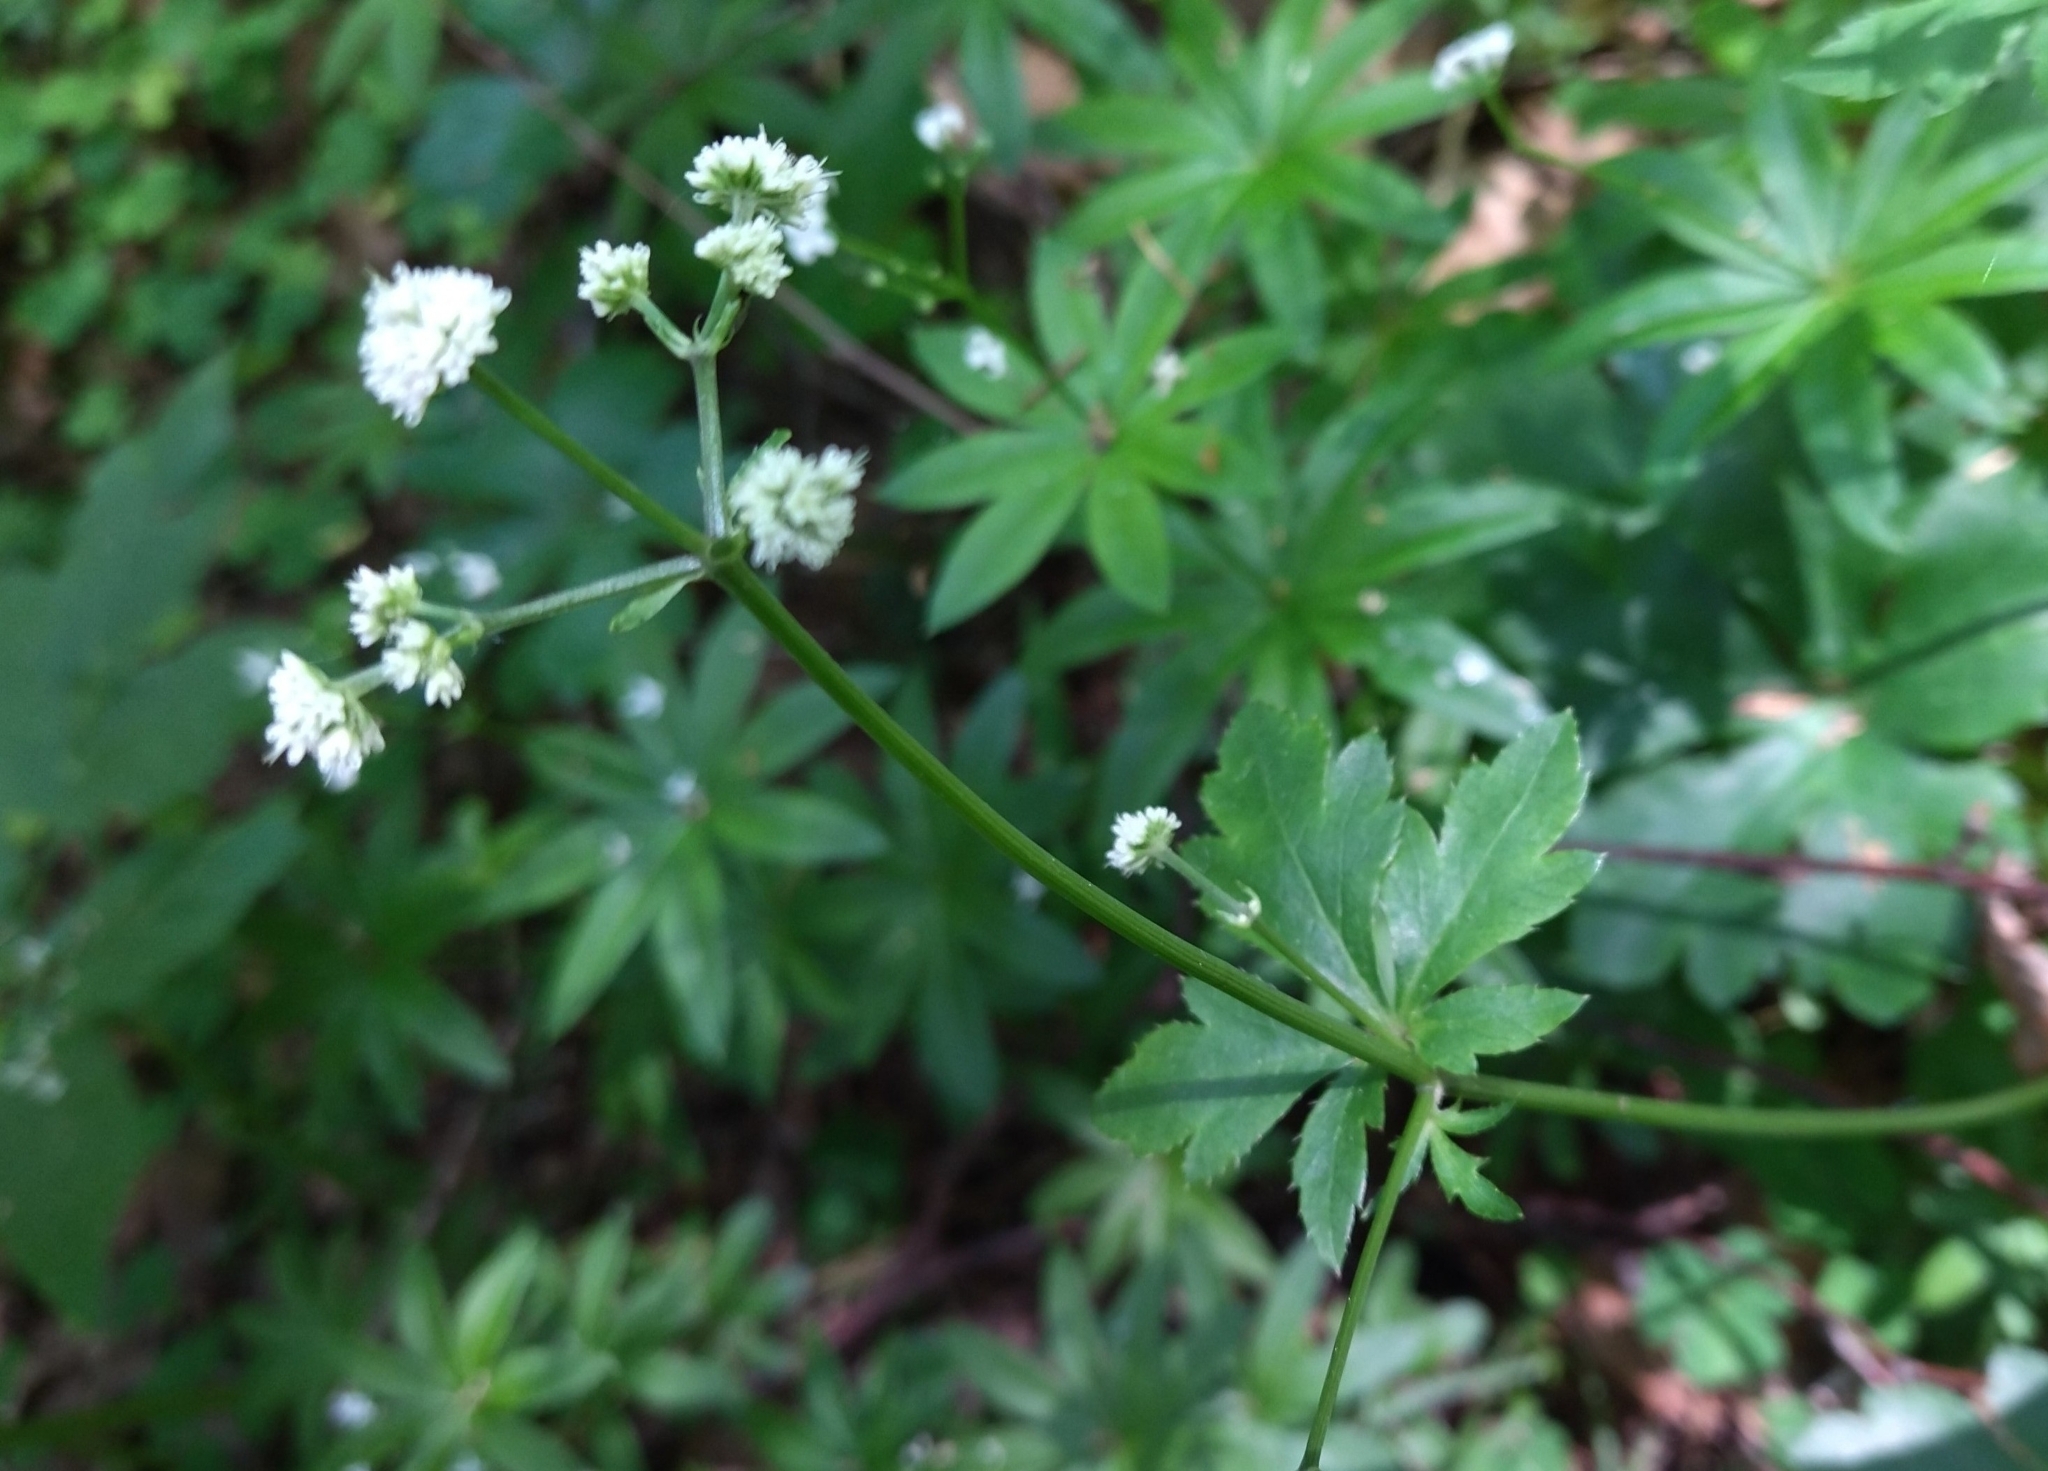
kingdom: Plantae
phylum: Tracheophyta
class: Magnoliopsida
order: Apiales
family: Apiaceae
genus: Sanicula
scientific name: Sanicula europaea
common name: Sanicle
